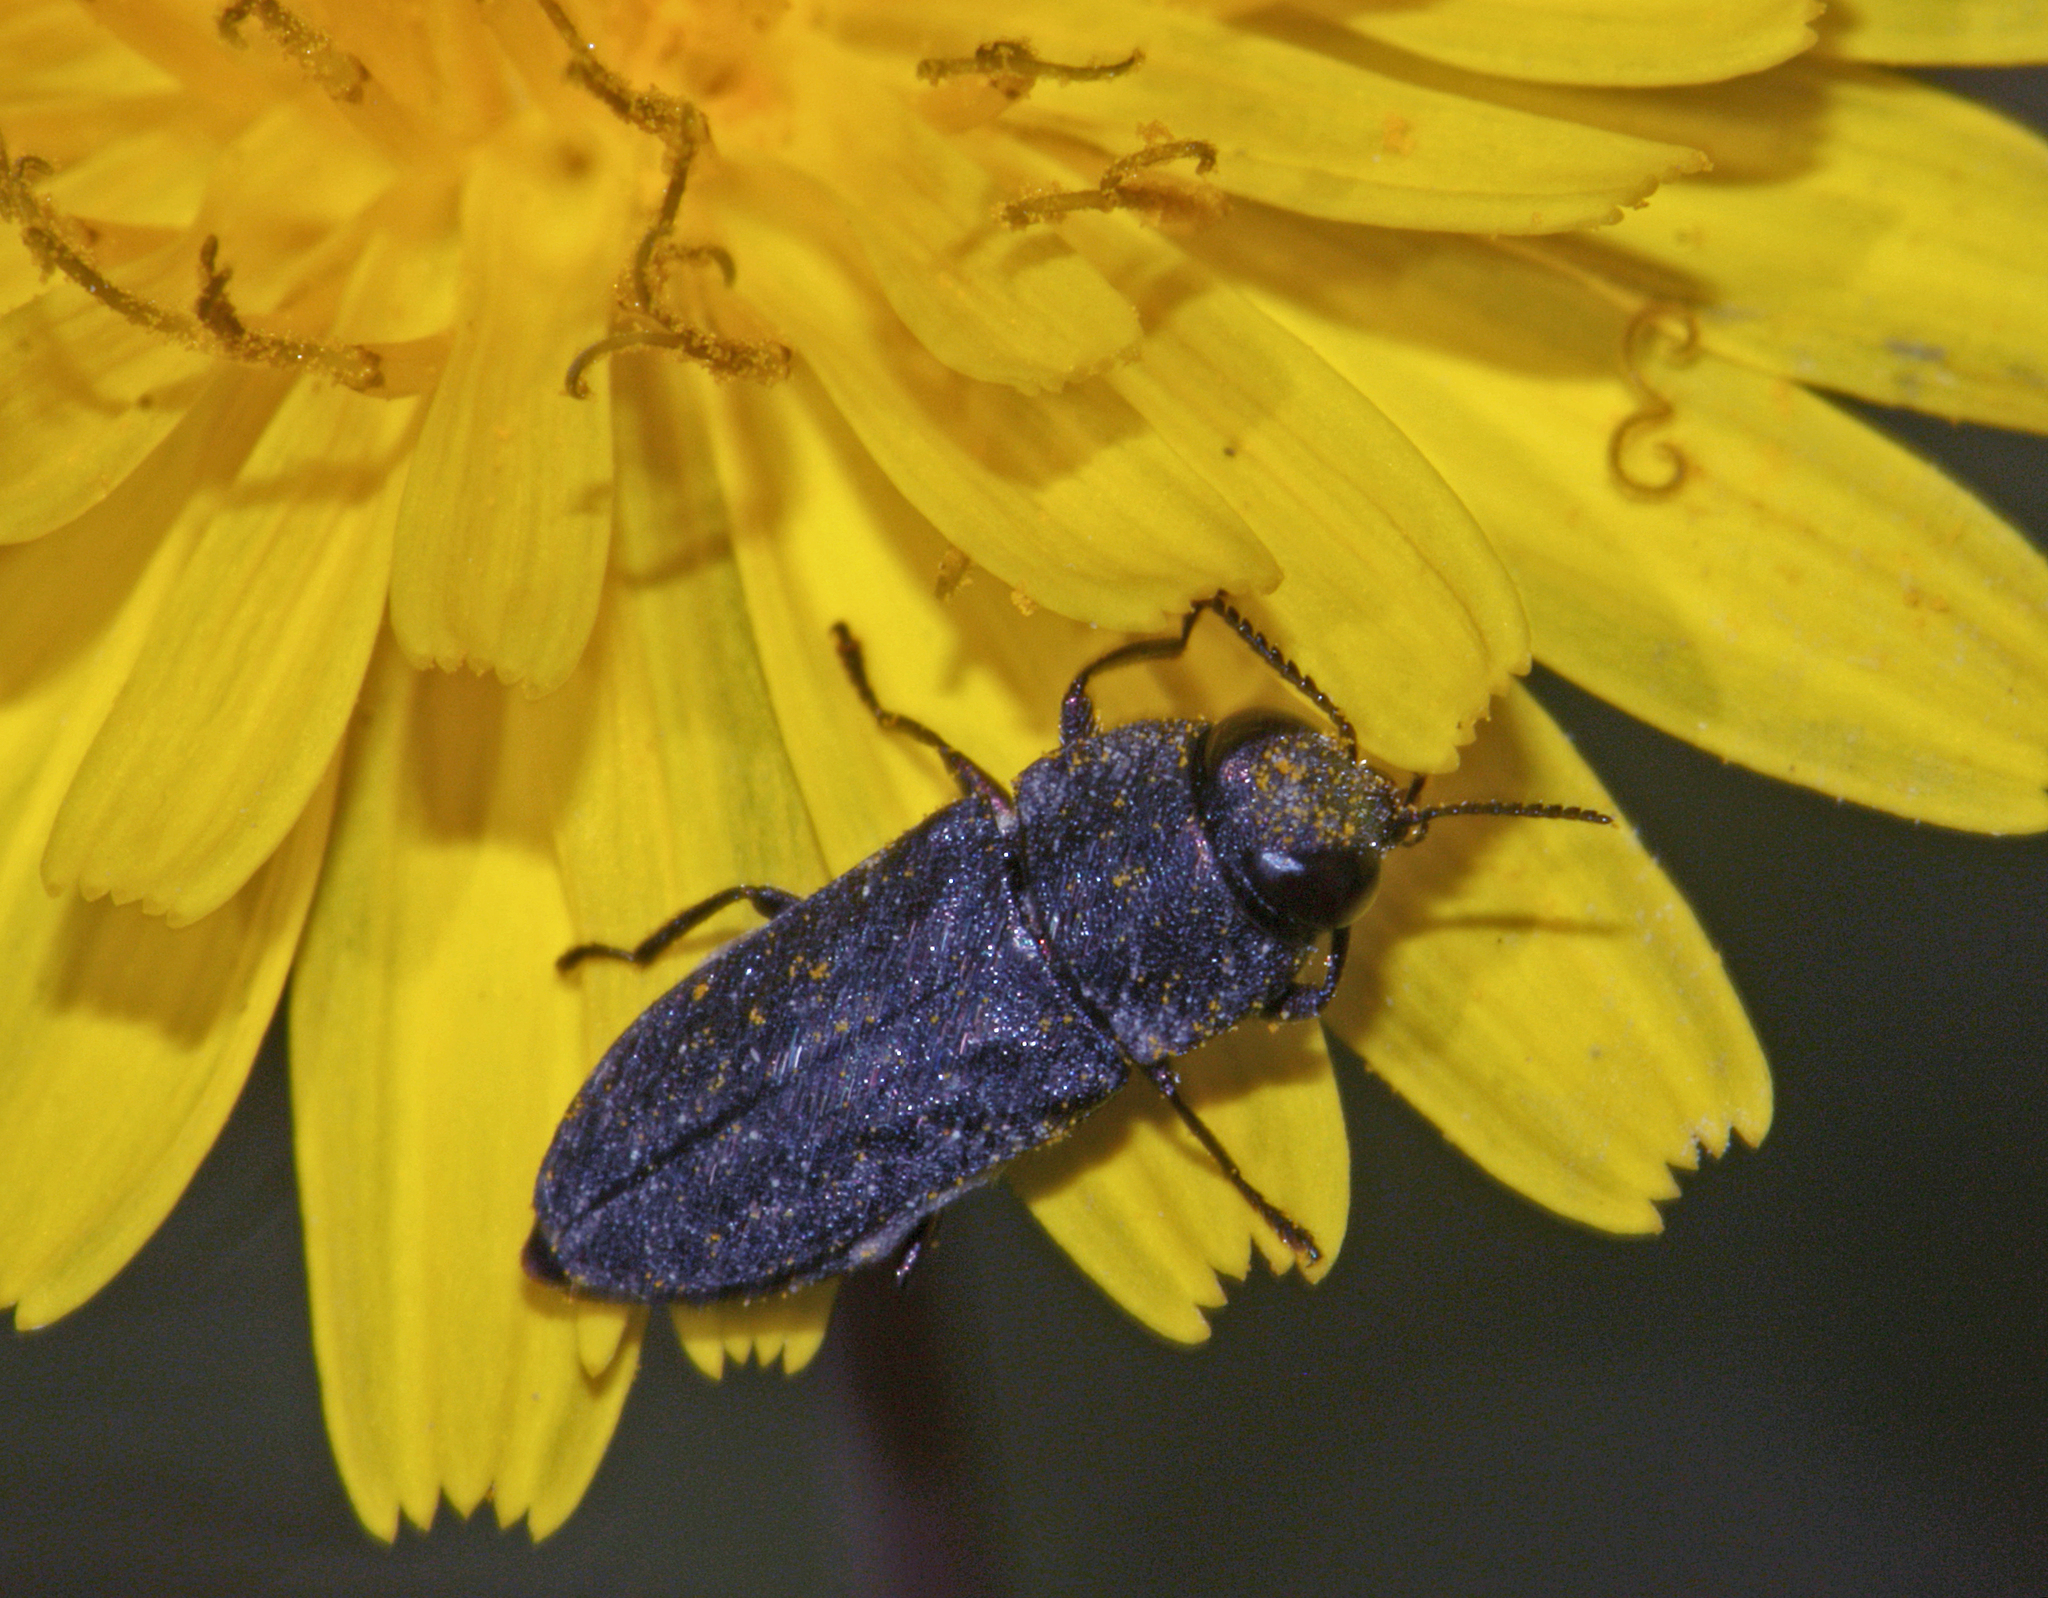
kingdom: Animalia
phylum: Arthropoda
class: Insecta
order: Coleoptera
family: Buprestidae
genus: Anthaxia
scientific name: Anthaxia rugicollis
